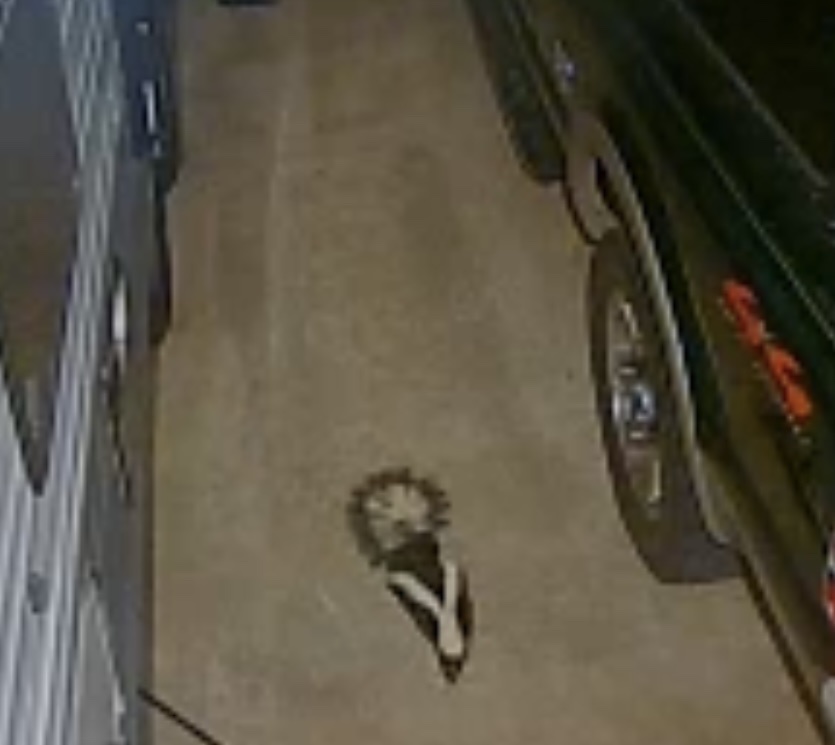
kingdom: Animalia
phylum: Chordata
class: Mammalia
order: Carnivora
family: Mephitidae
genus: Mephitis
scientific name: Mephitis mephitis
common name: Striped skunk
